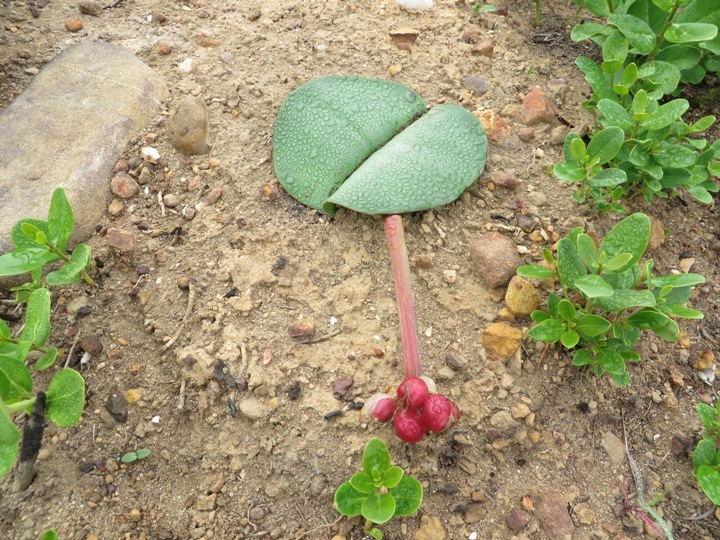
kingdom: Plantae
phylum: Tracheophyta
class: Liliopsida
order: Asparagales
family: Amaryllidaceae
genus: Haemanthus
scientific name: Haemanthus sanguineus
